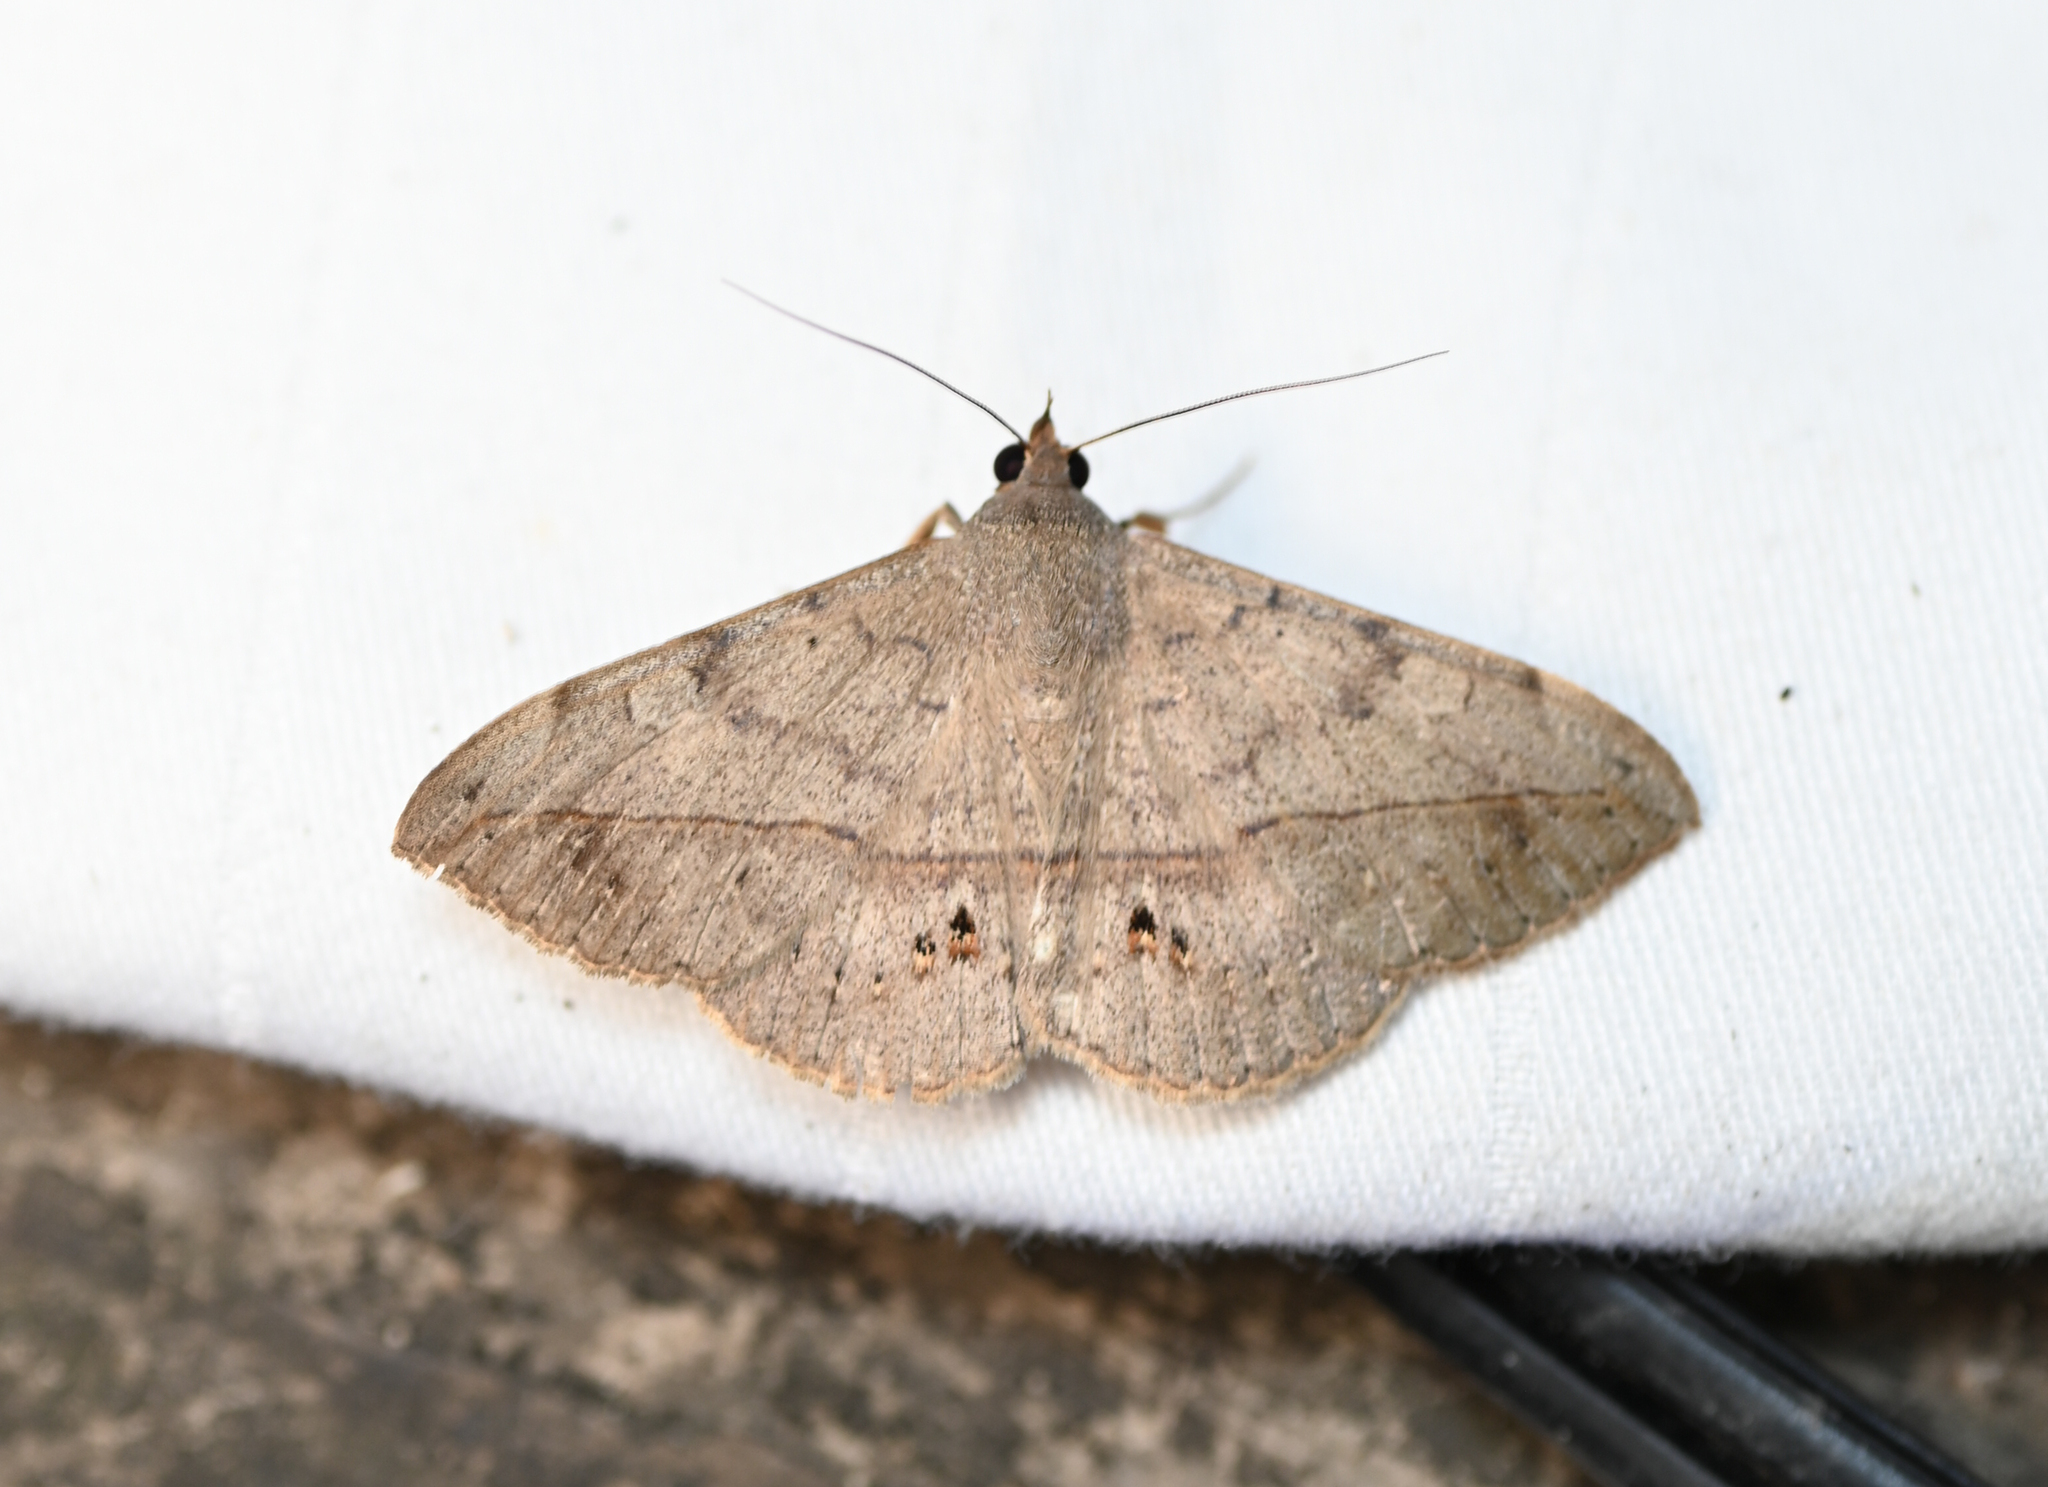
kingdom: Animalia
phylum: Arthropoda
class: Insecta
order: Lepidoptera
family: Erebidae
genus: Anticarsia
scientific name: Anticarsia gemmatalis
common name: Cutworm moth
